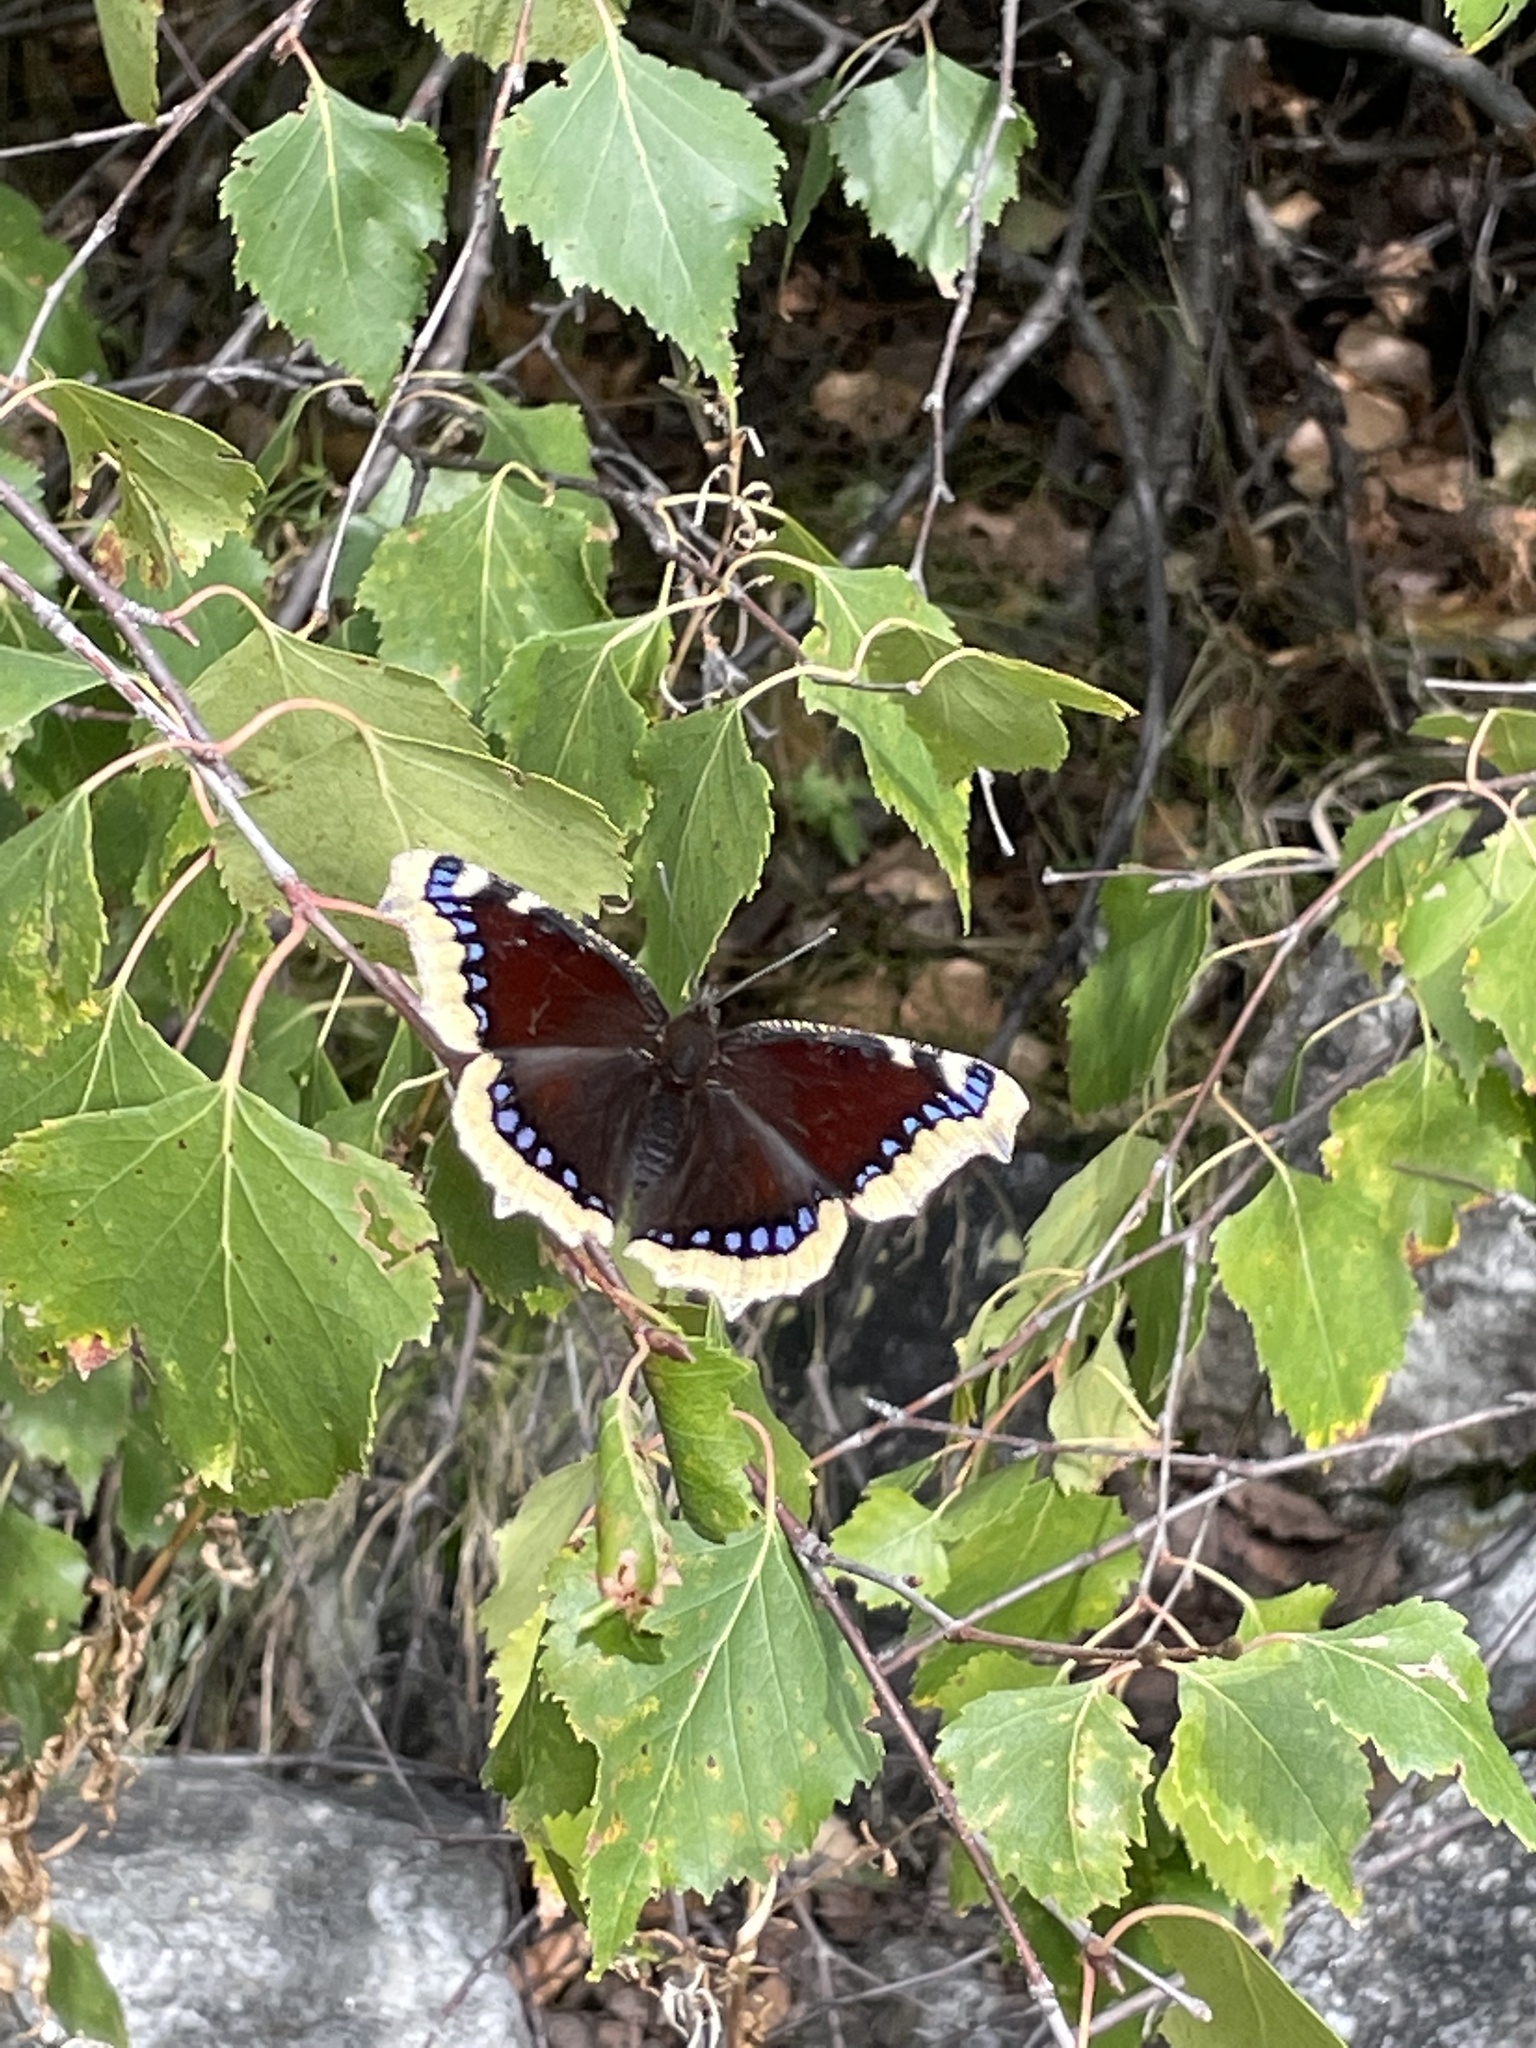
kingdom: Animalia
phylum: Arthropoda
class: Insecta
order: Lepidoptera
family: Nymphalidae
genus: Nymphalis
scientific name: Nymphalis antiopa
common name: Camberwell beauty
